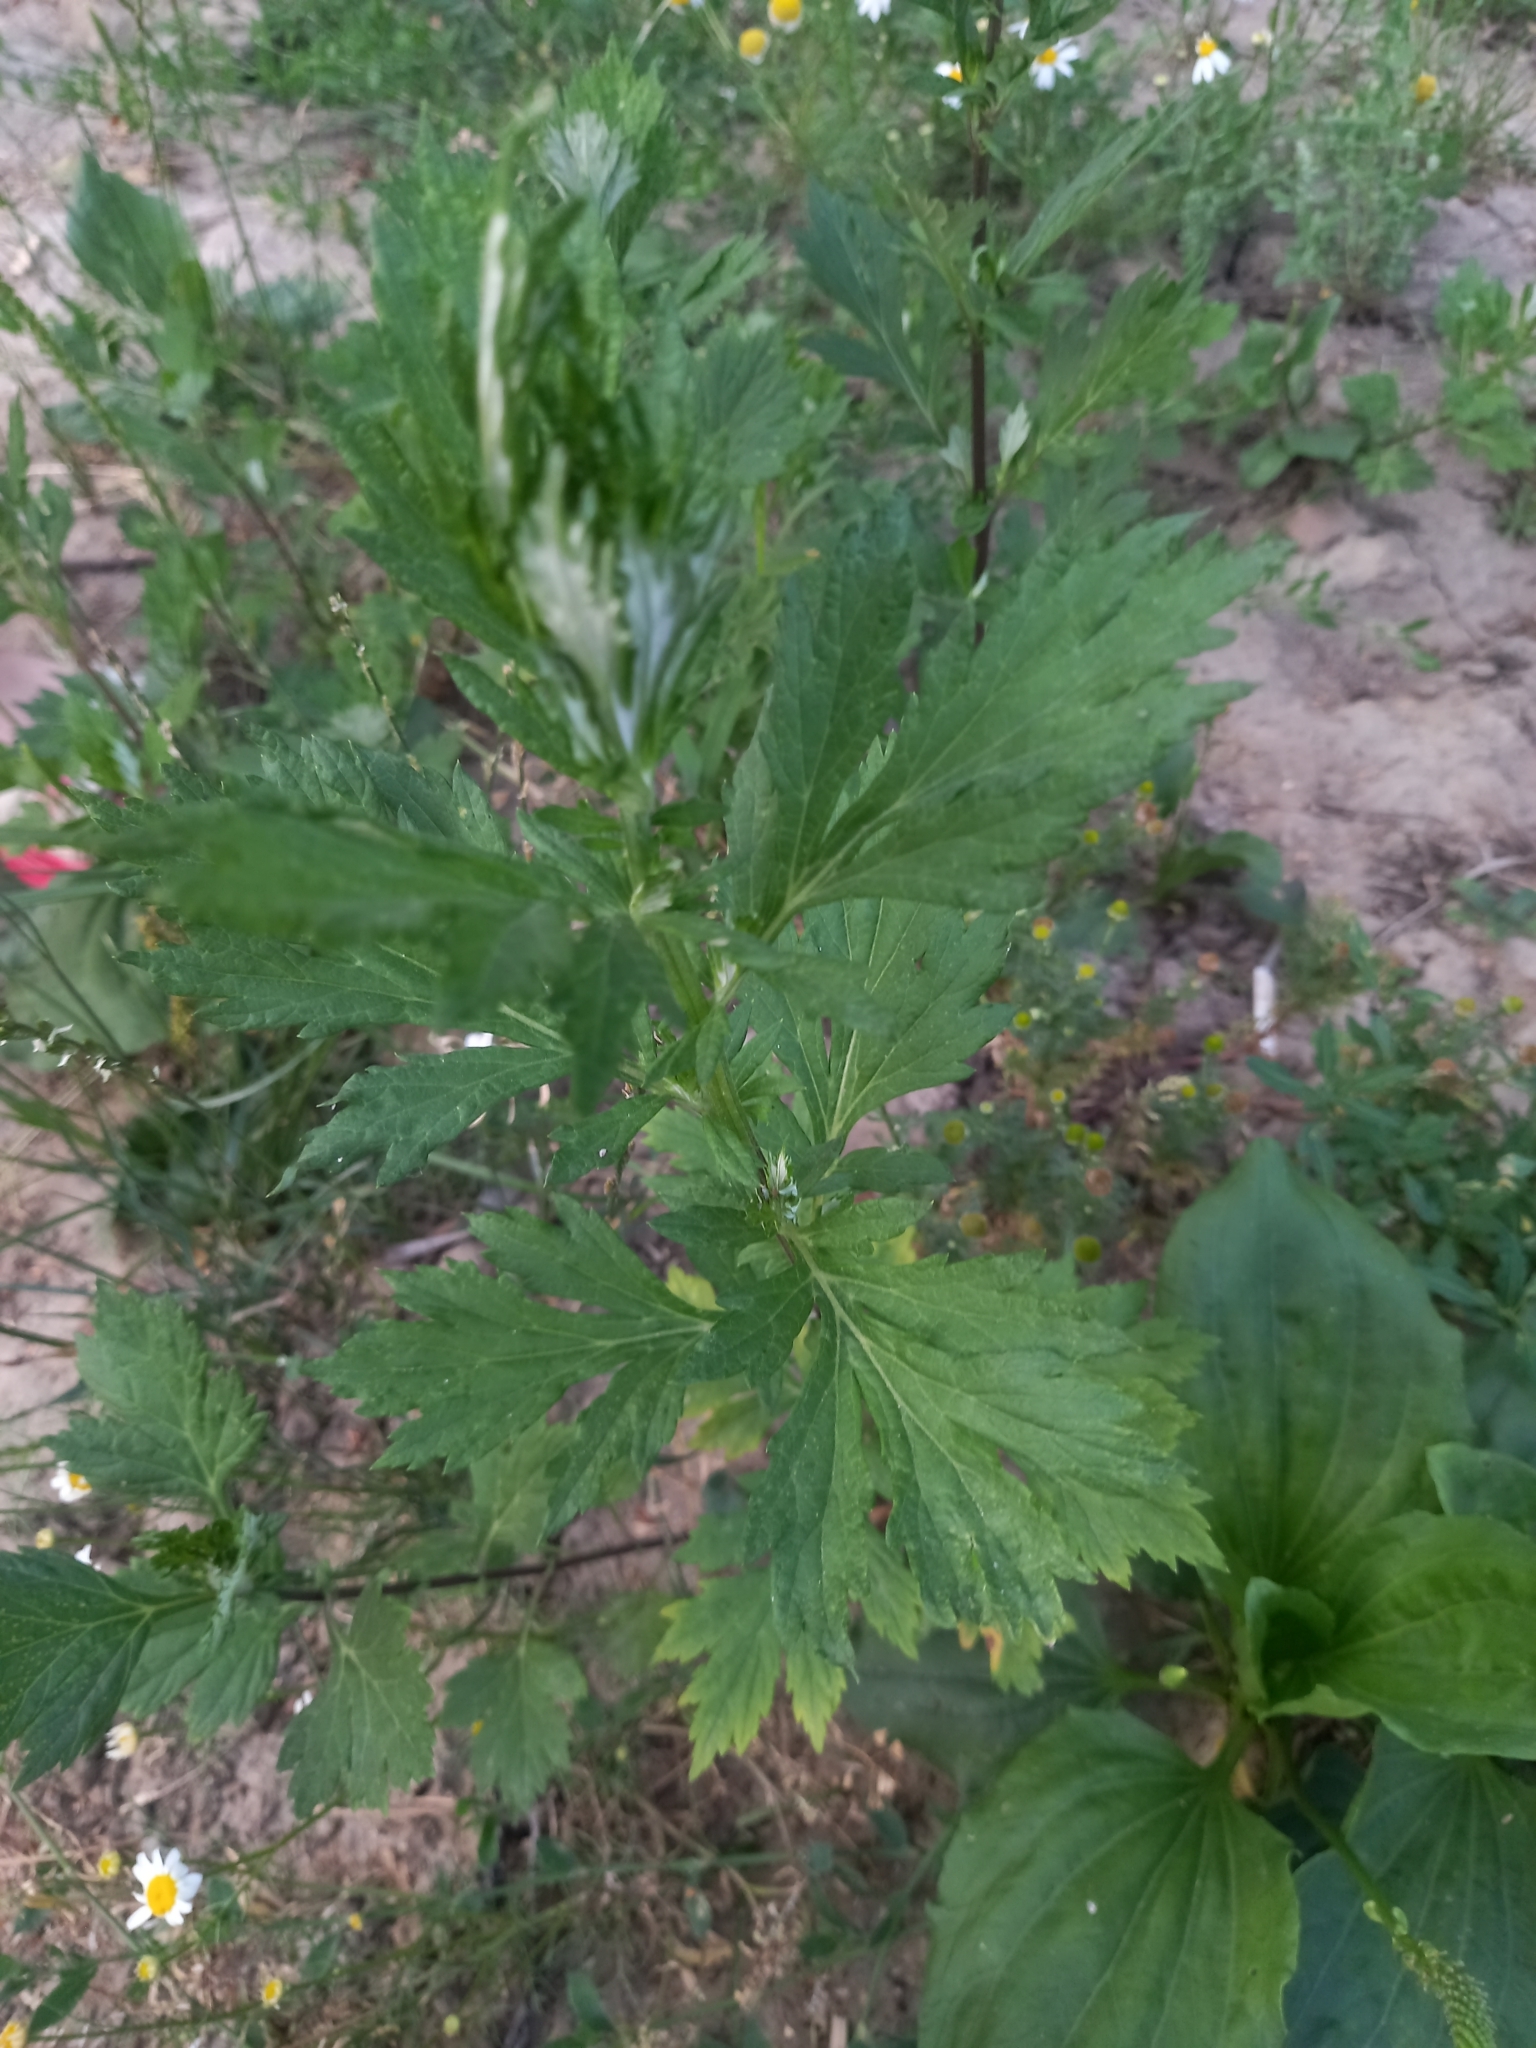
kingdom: Plantae
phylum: Tracheophyta
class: Magnoliopsida
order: Asterales
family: Asteraceae
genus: Artemisia
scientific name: Artemisia vulgaris
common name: Mugwort
